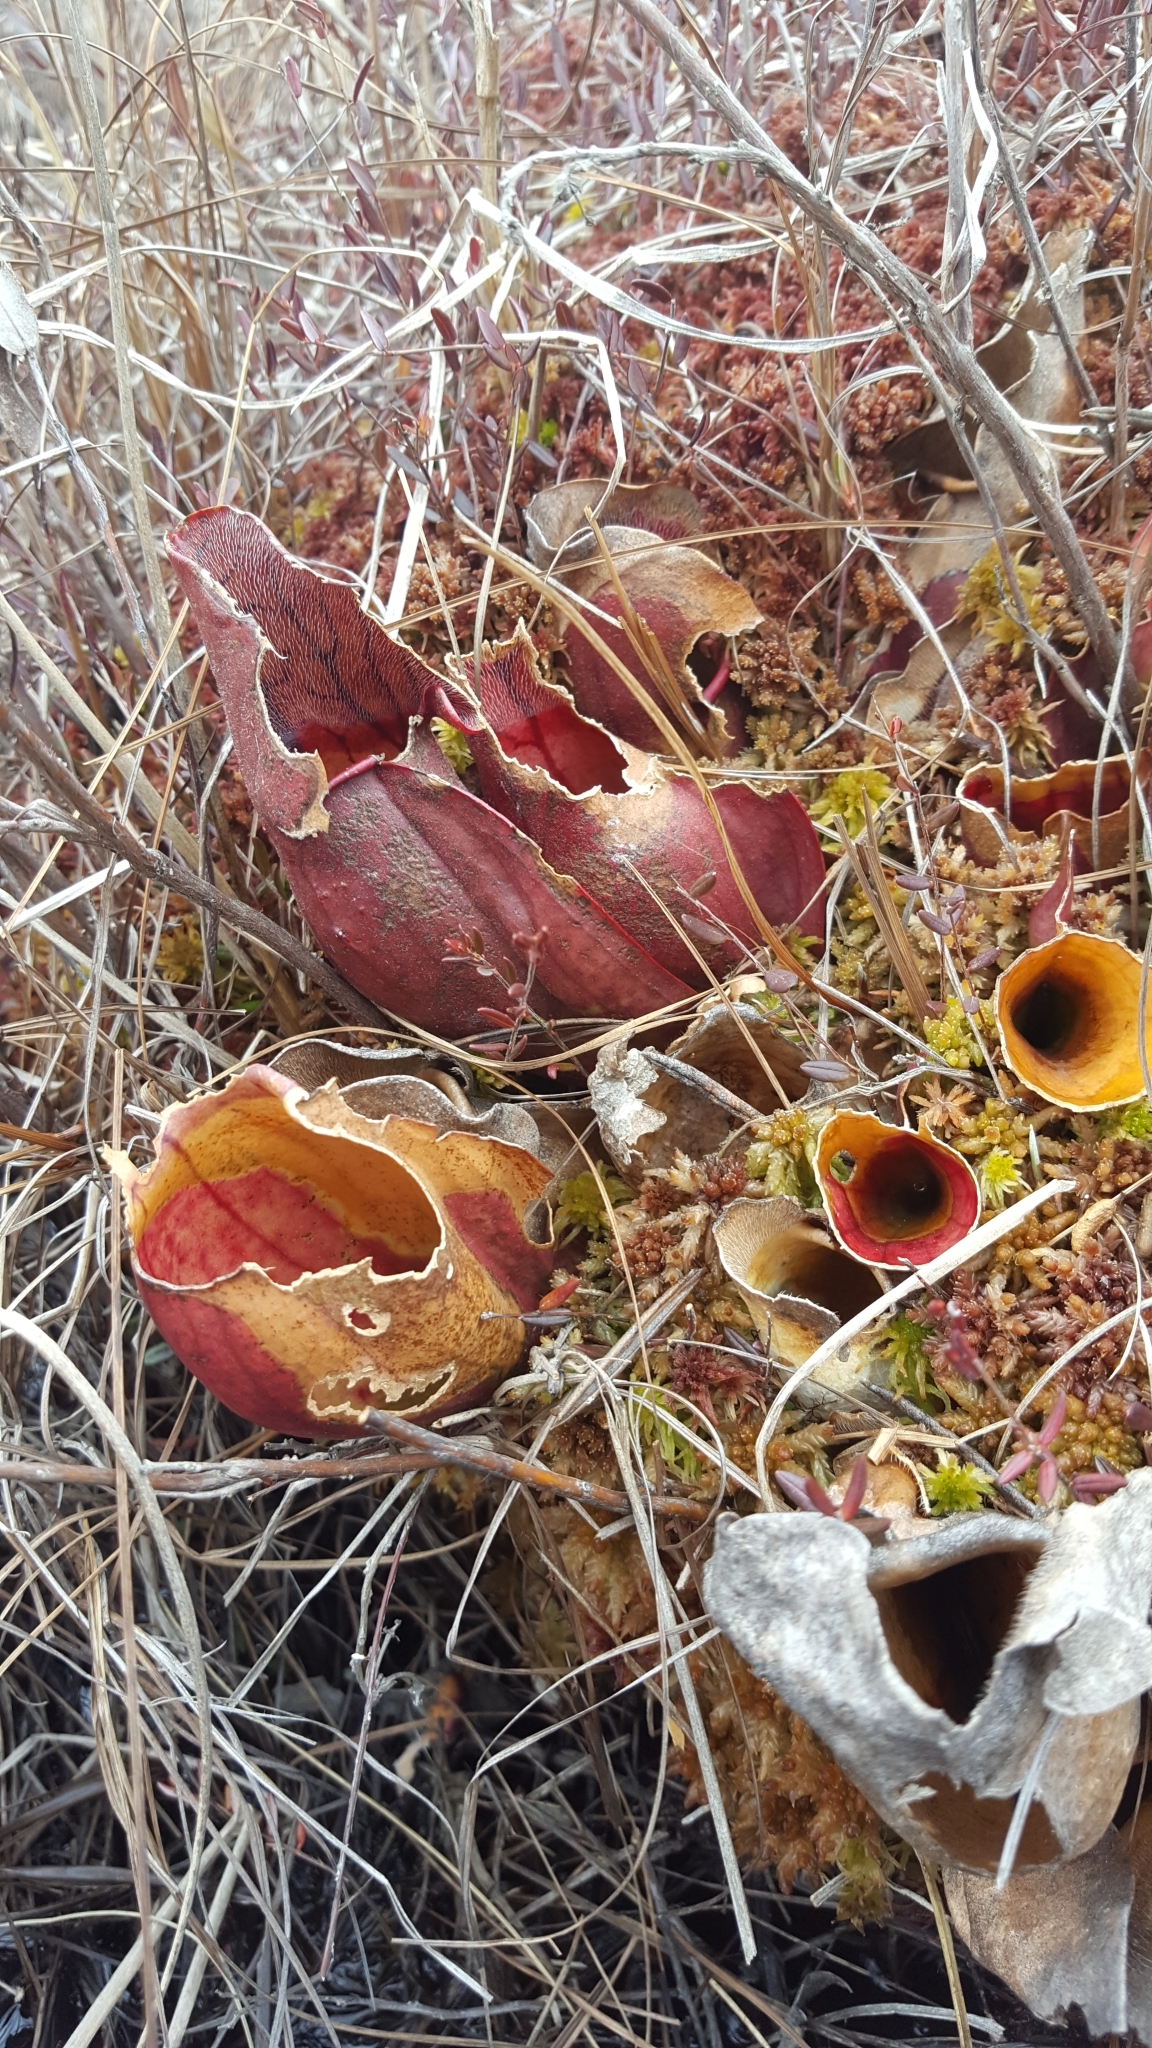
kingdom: Plantae
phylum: Tracheophyta
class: Magnoliopsida
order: Ericales
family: Sarraceniaceae
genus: Sarracenia
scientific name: Sarracenia purpurea
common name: Pitcherplant
